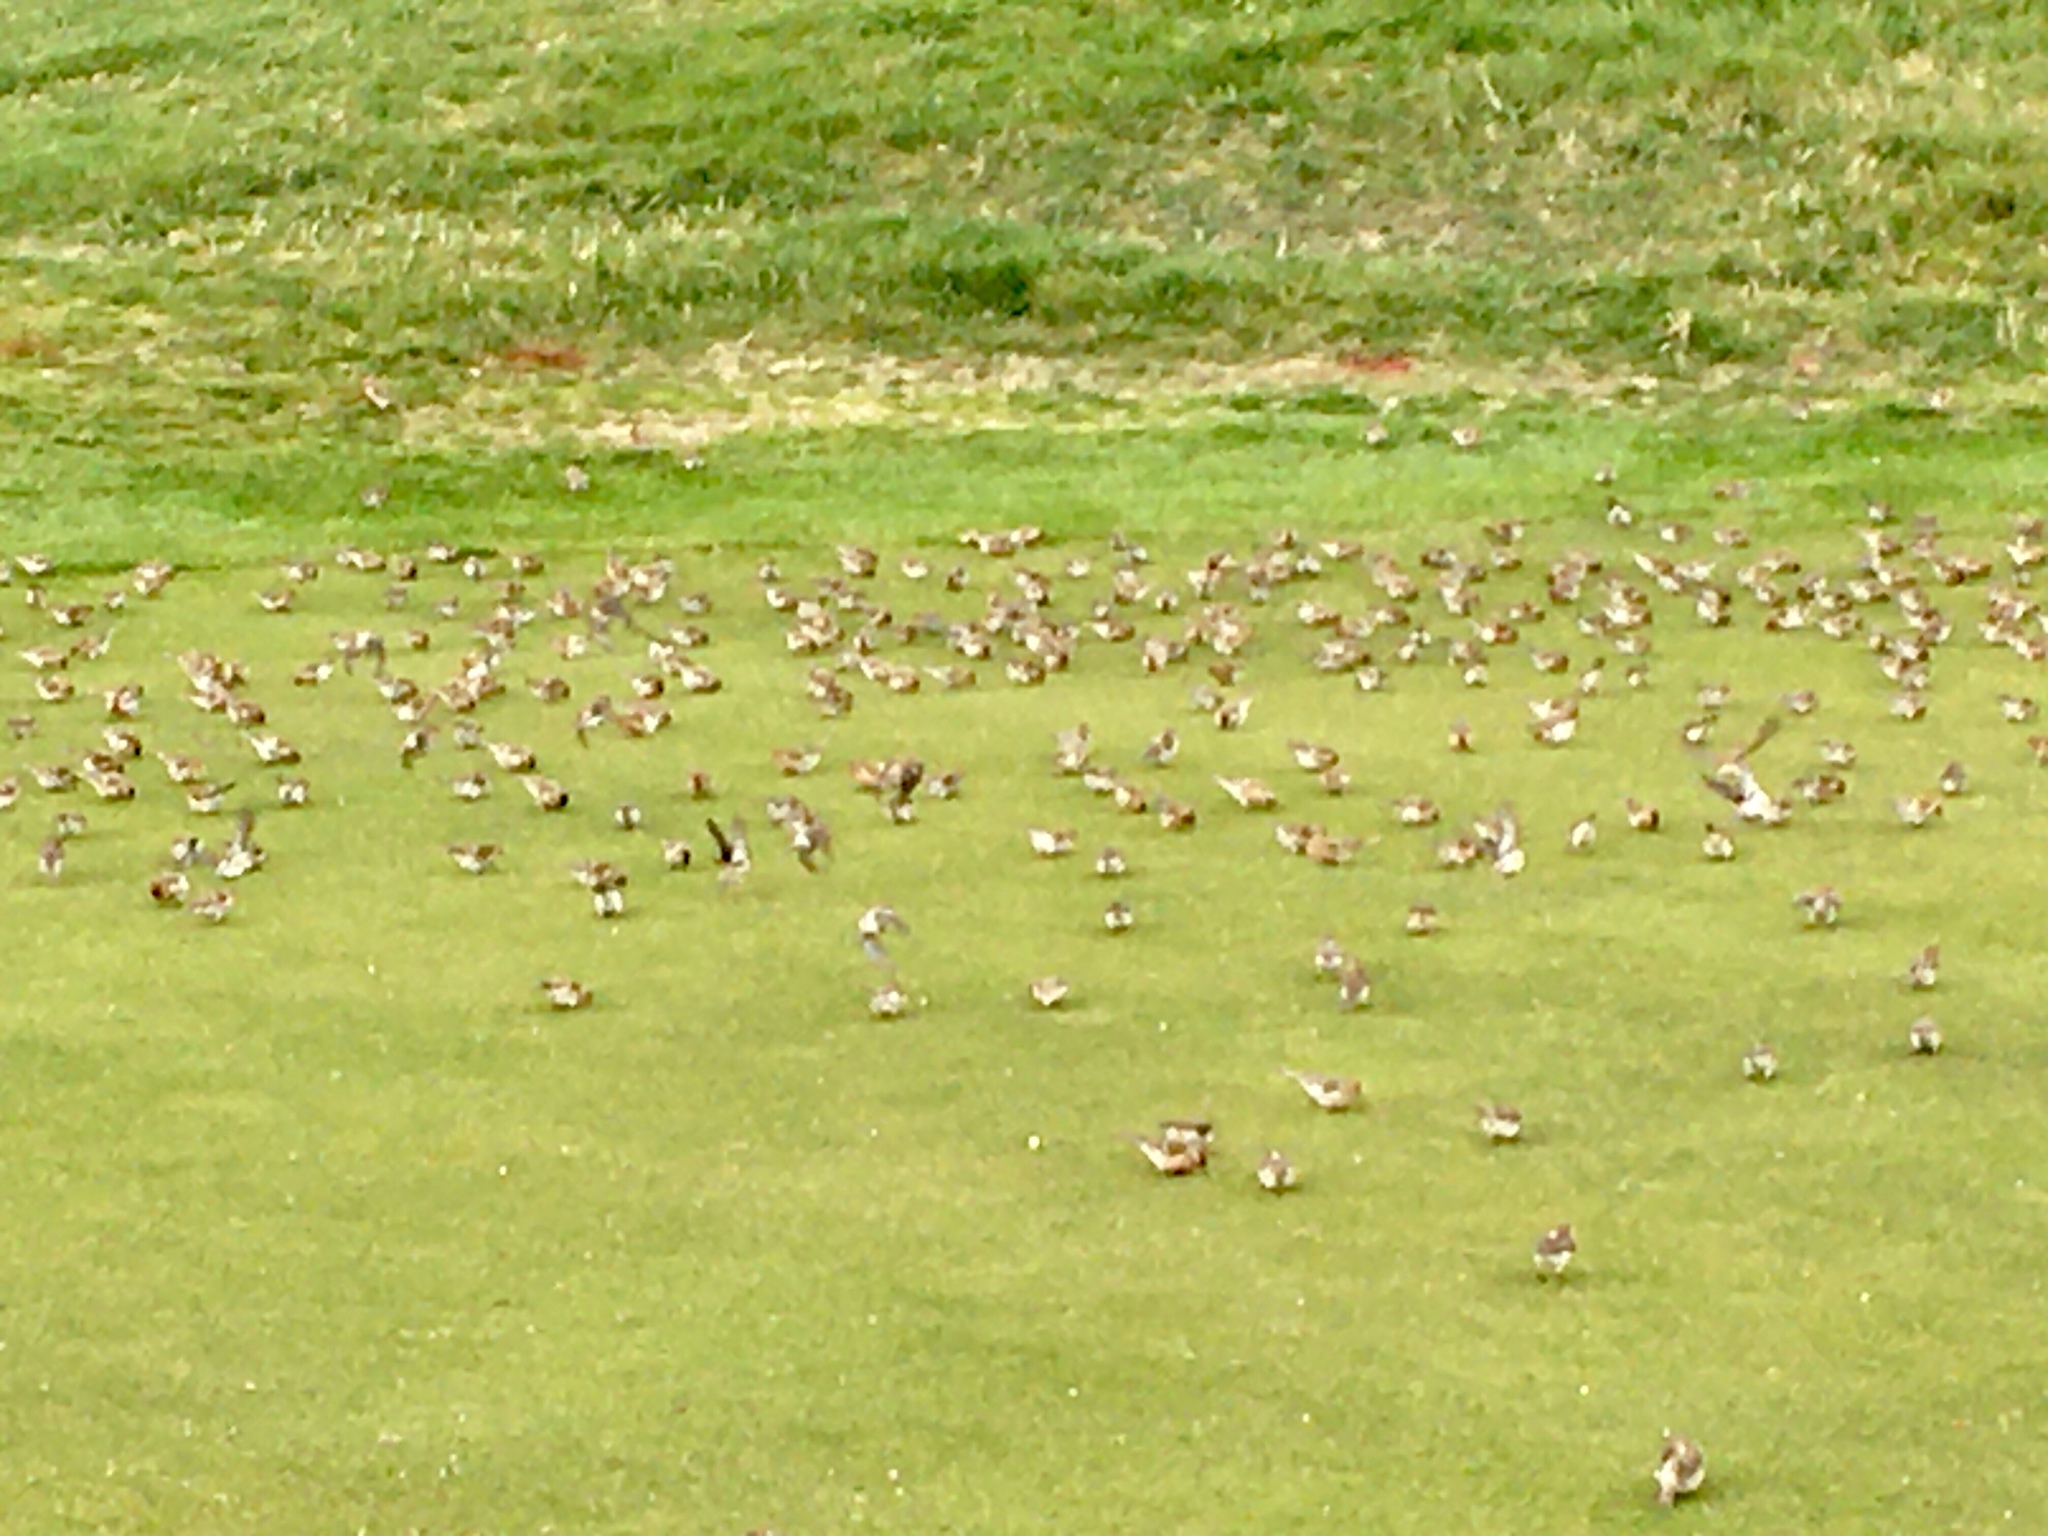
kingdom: Animalia
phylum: Chordata
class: Aves
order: Passeriformes
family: Fringillidae
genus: Carduelis
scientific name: Carduelis carduelis
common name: European goldfinch
